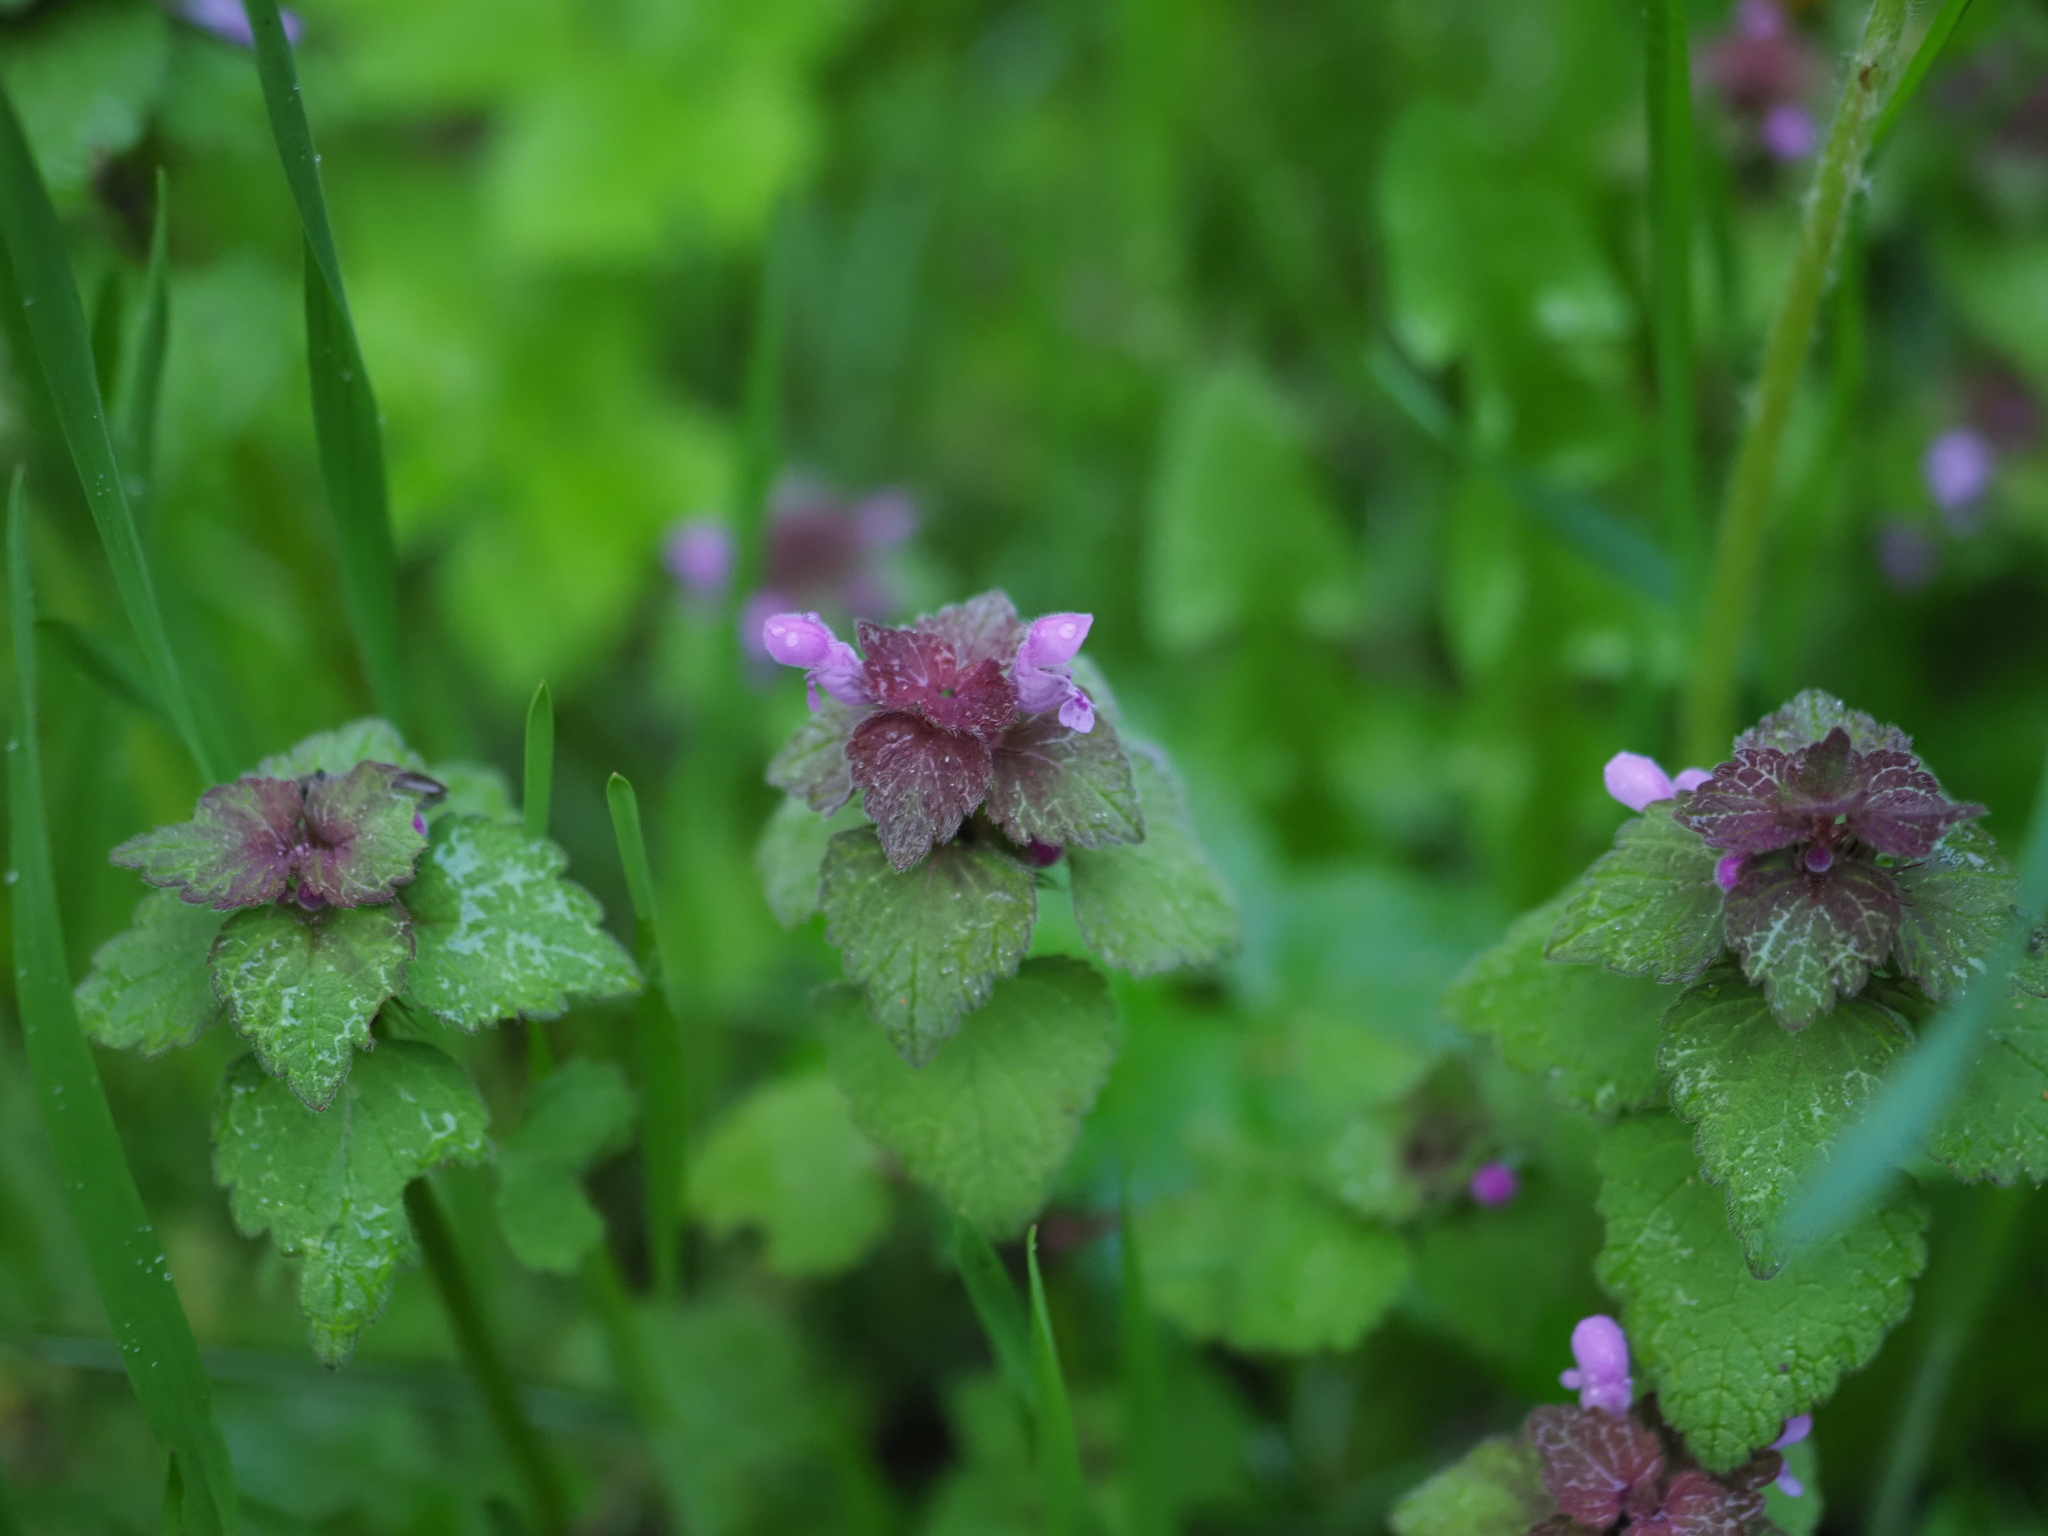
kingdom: Plantae
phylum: Tracheophyta
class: Magnoliopsida
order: Lamiales
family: Lamiaceae
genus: Lamium
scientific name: Lamium purpureum
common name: Red dead-nettle
